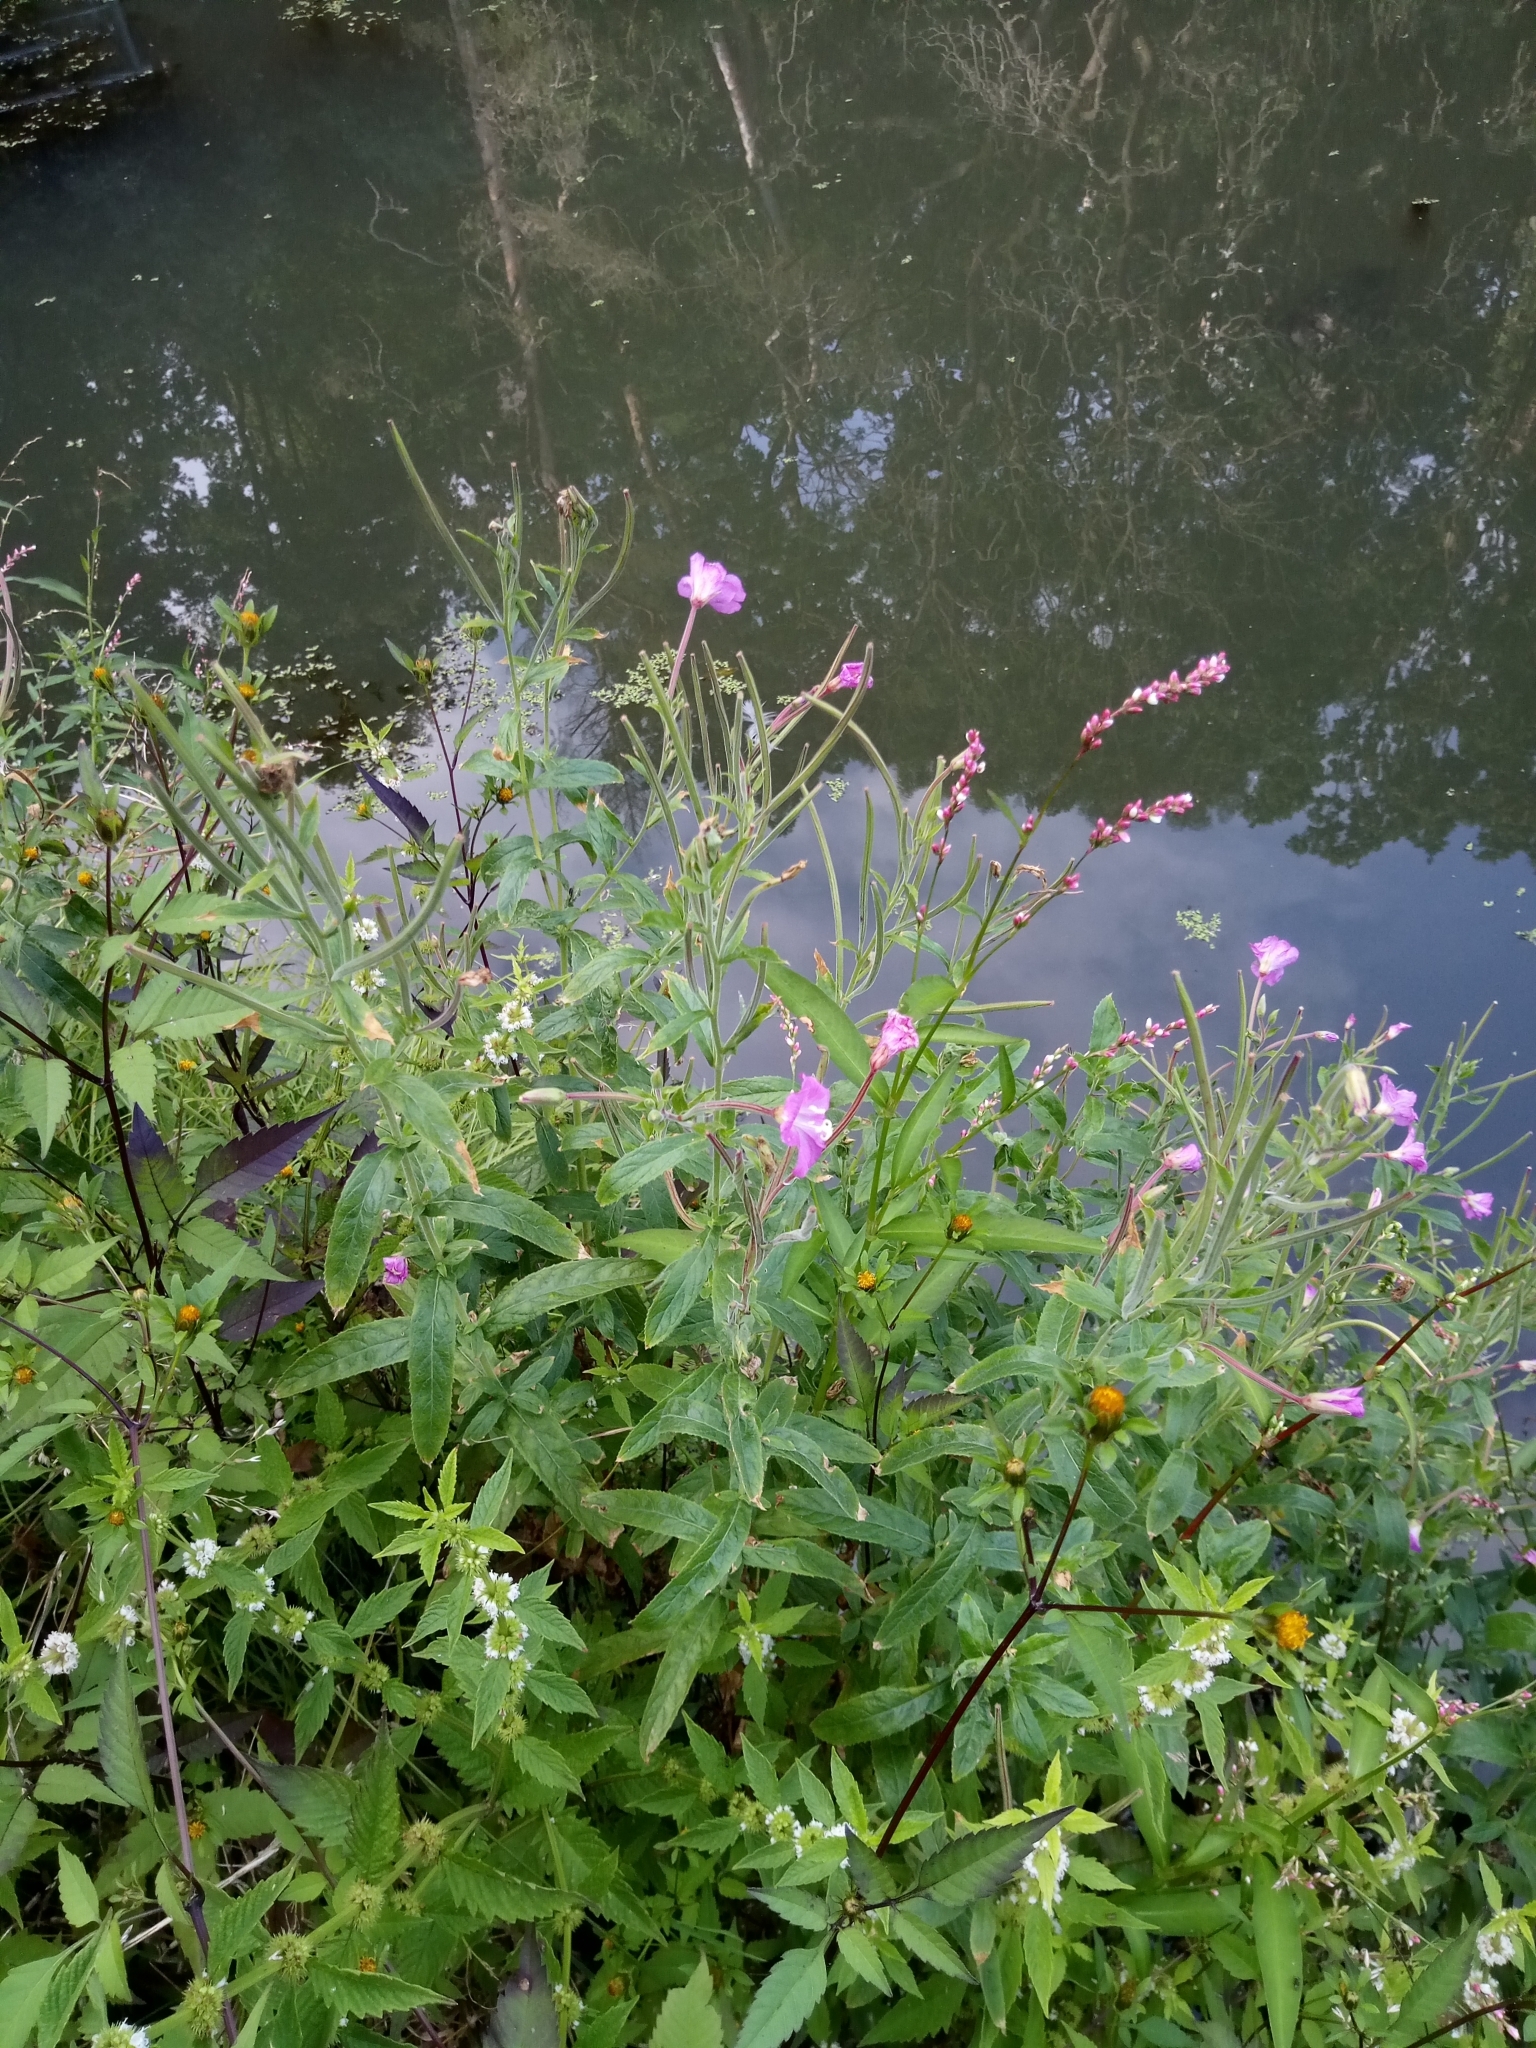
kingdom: Plantae
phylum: Tracheophyta
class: Magnoliopsida
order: Myrtales
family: Onagraceae
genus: Epilobium
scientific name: Epilobium hirsutum
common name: Great willowherb
